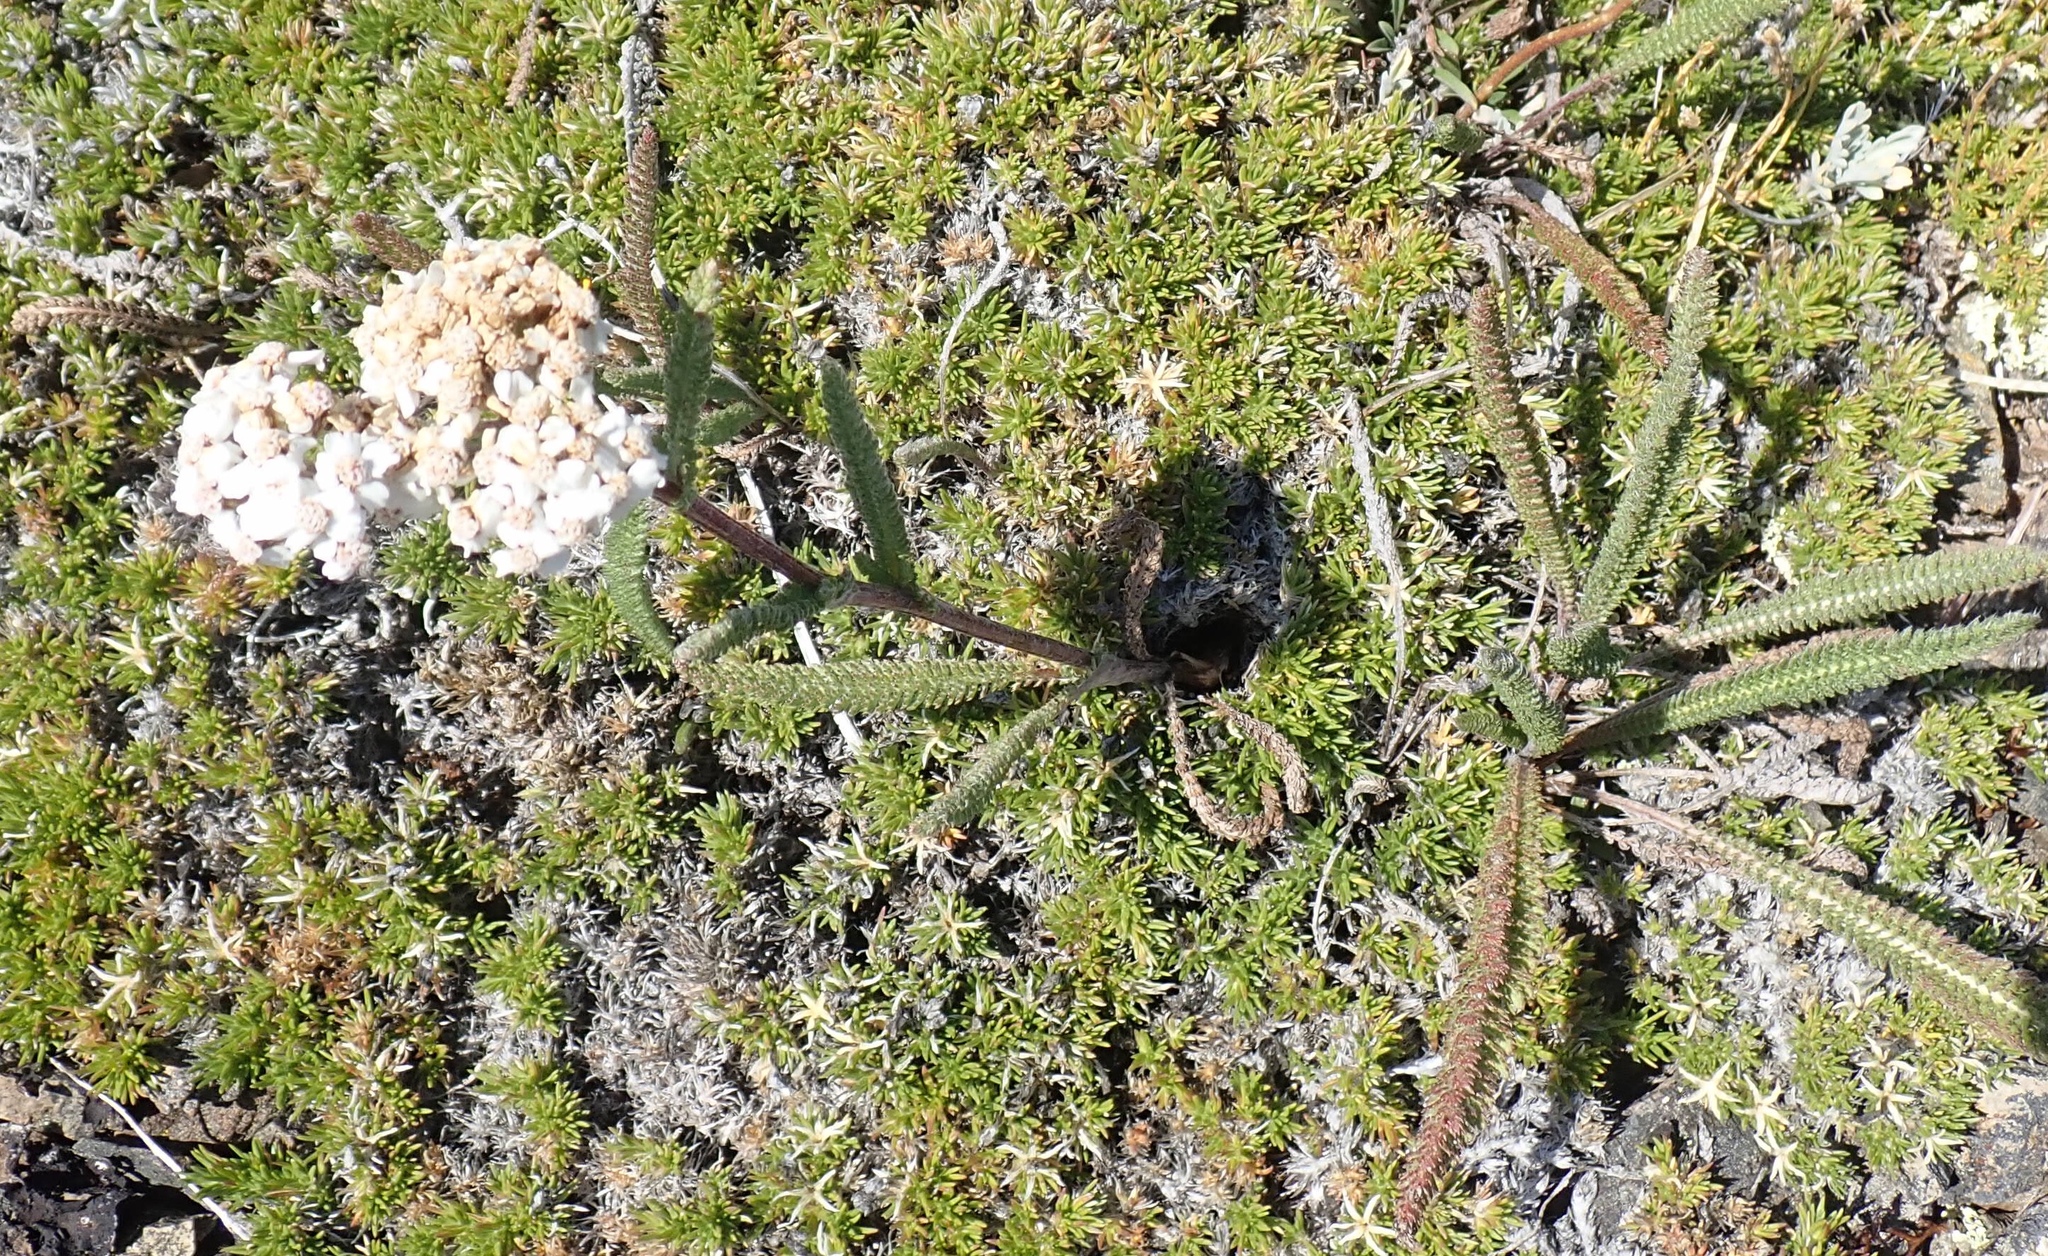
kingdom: Plantae
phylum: Tracheophyta
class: Magnoliopsida
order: Rosales
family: Rosaceae
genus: Luetkea
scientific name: Luetkea pectinata
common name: Partridgefoot
